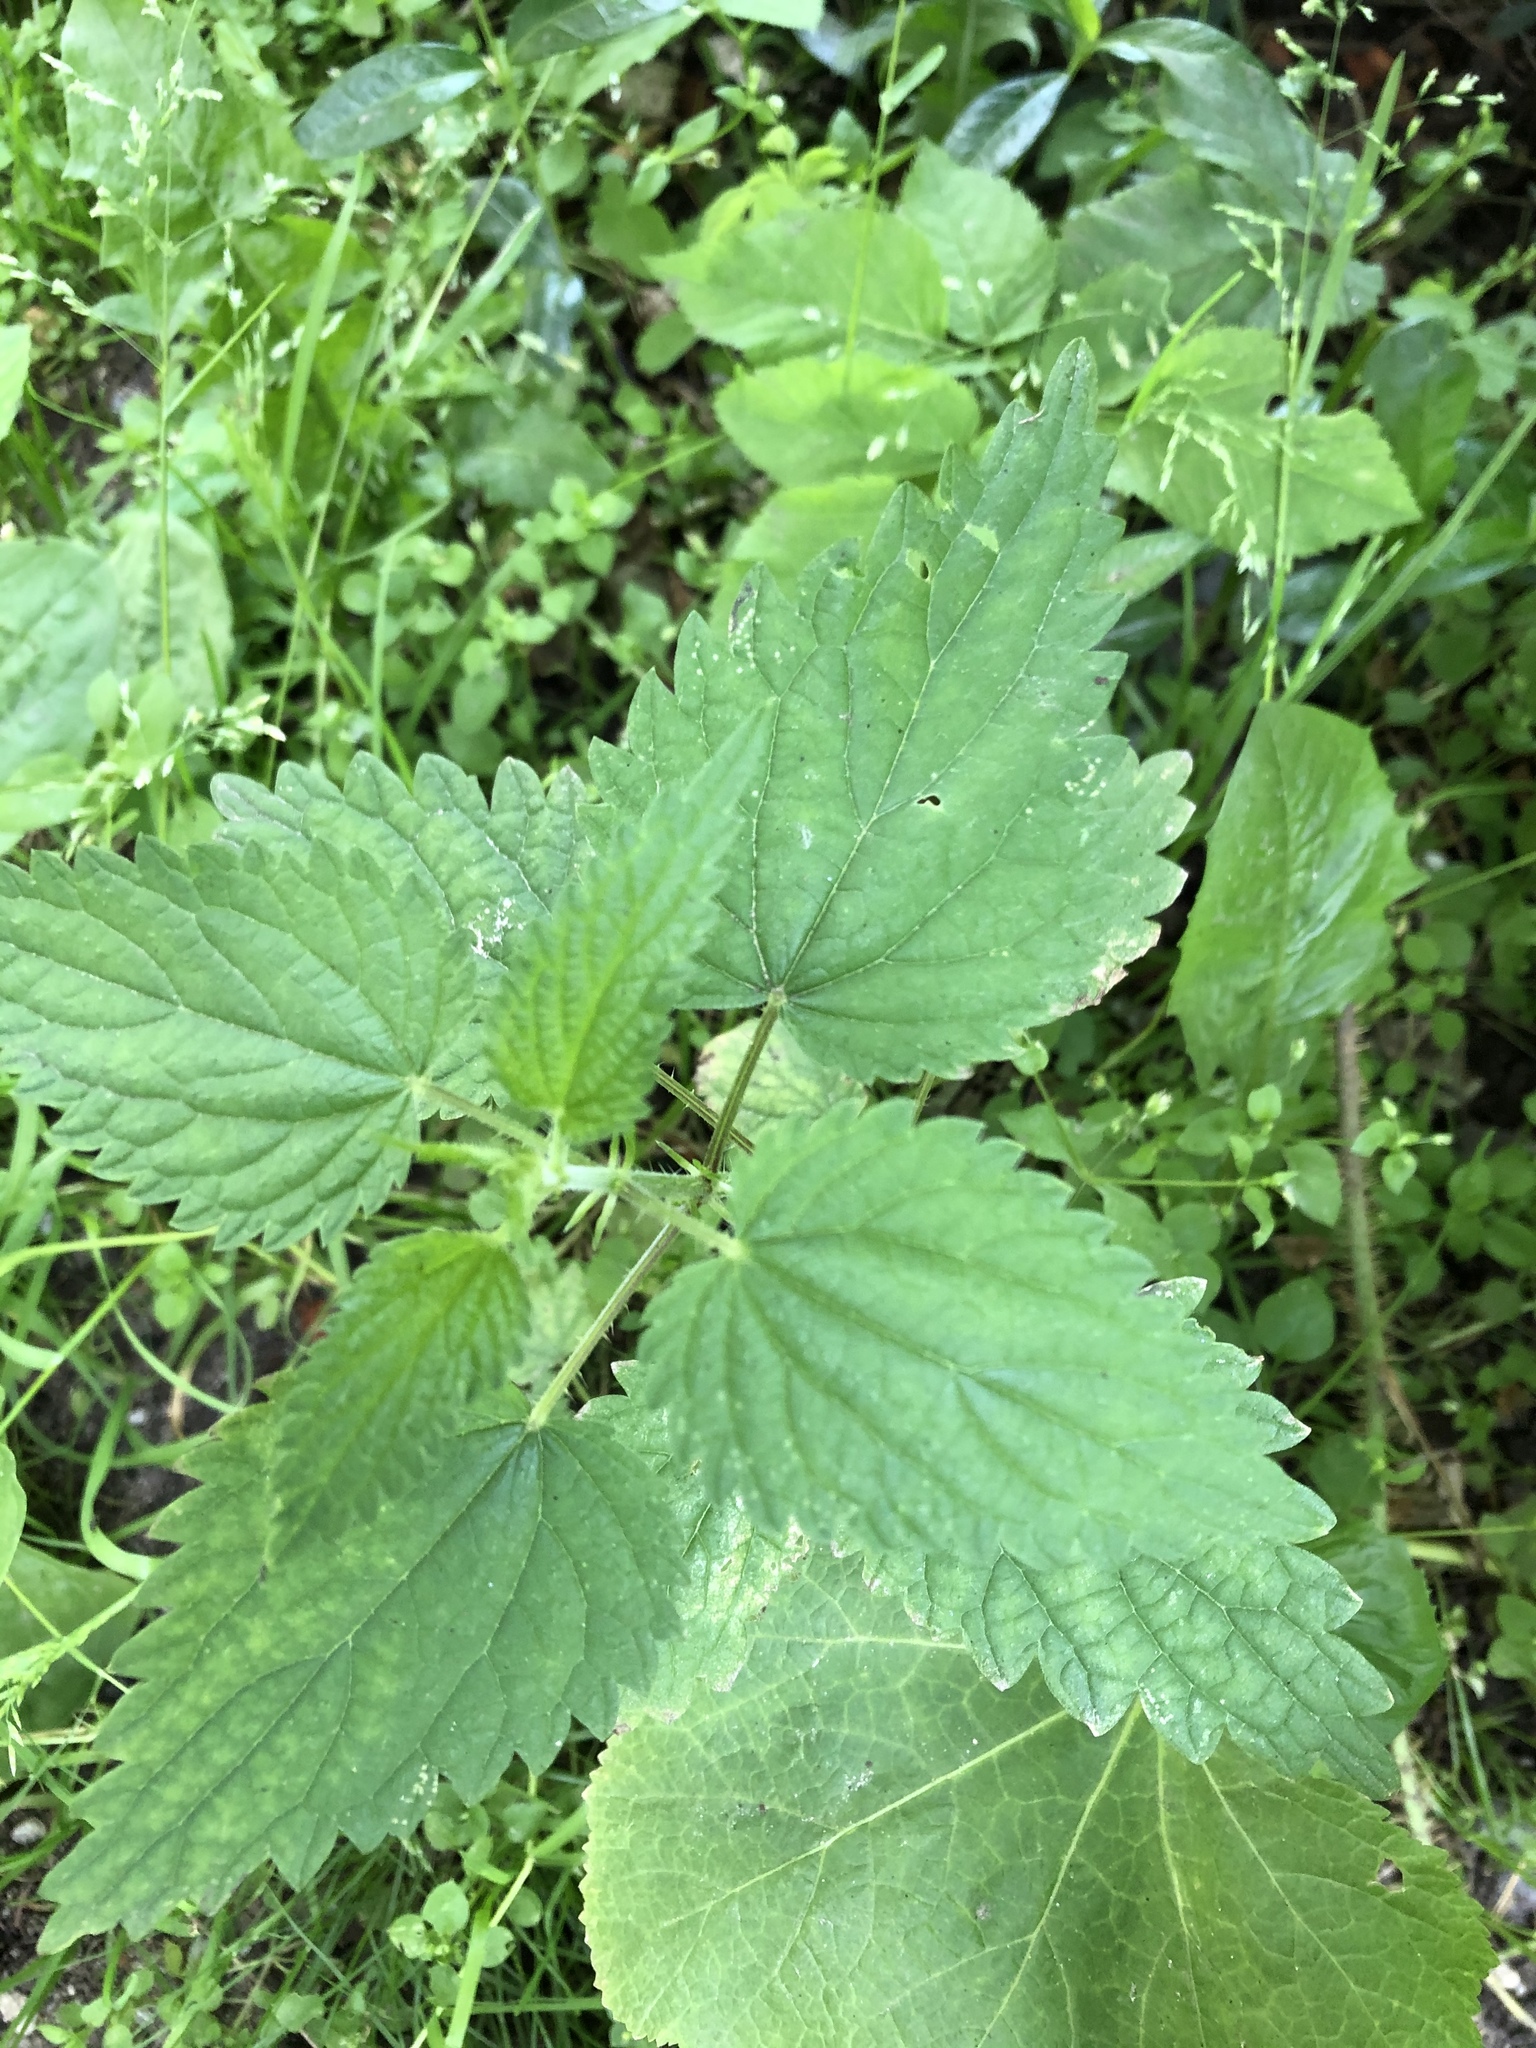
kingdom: Plantae
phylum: Tracheophyta
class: Magnoliopsida
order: Rosales
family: Urticaceae
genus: Urtica
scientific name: Urtica dioica
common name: Common nettle
